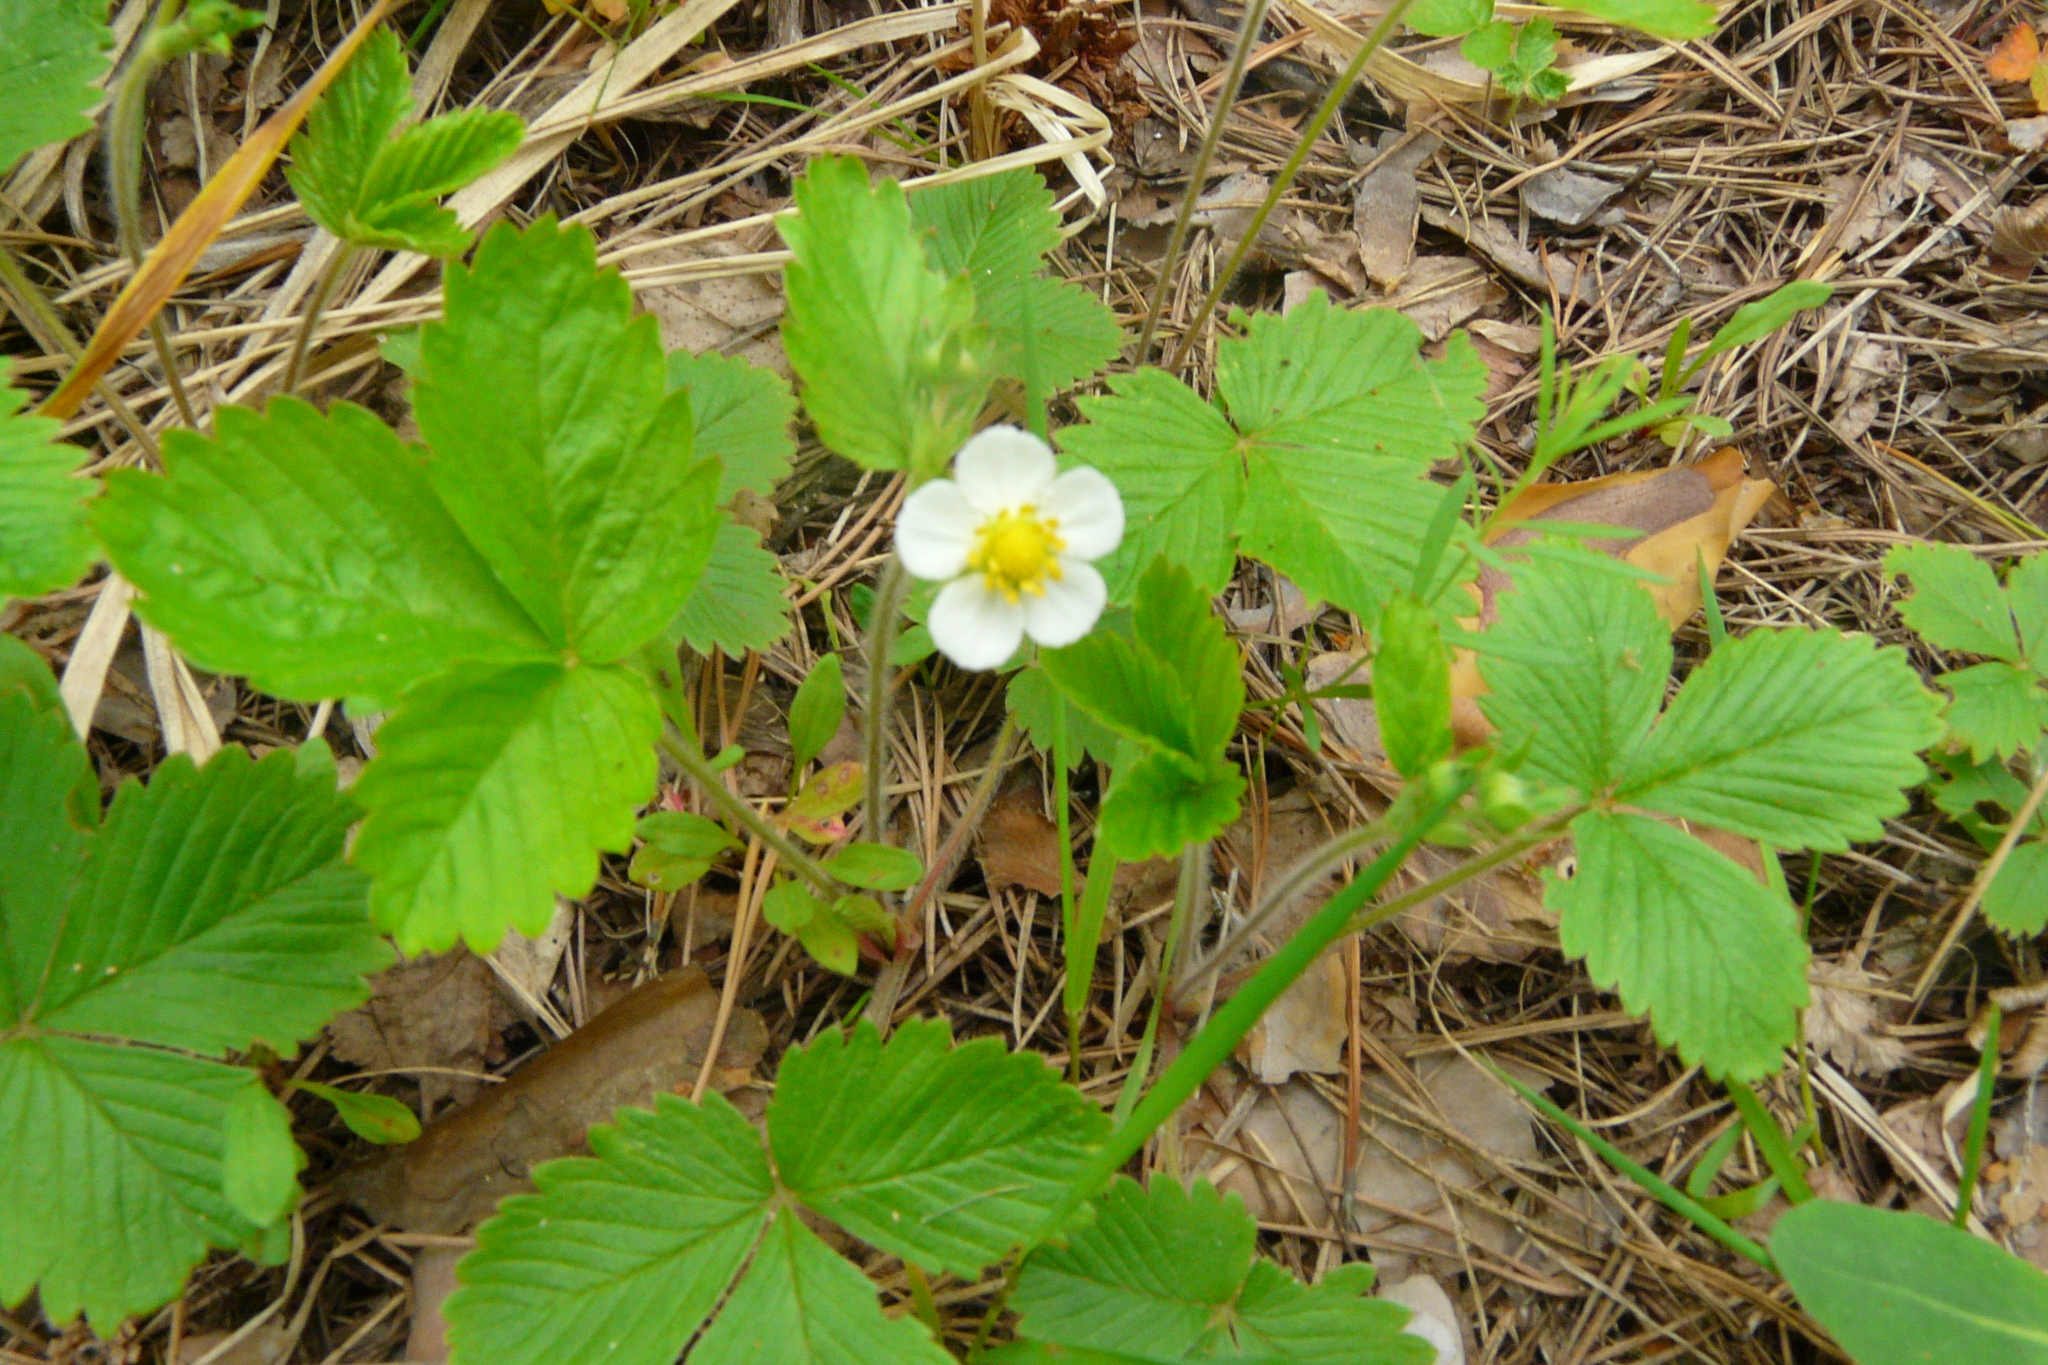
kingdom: Plantae
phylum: Tracheophyta
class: Magnoliopsida
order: Rosales
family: Rosaceae
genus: Fragaria
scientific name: Fragaria vesca
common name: Wild strawberry
